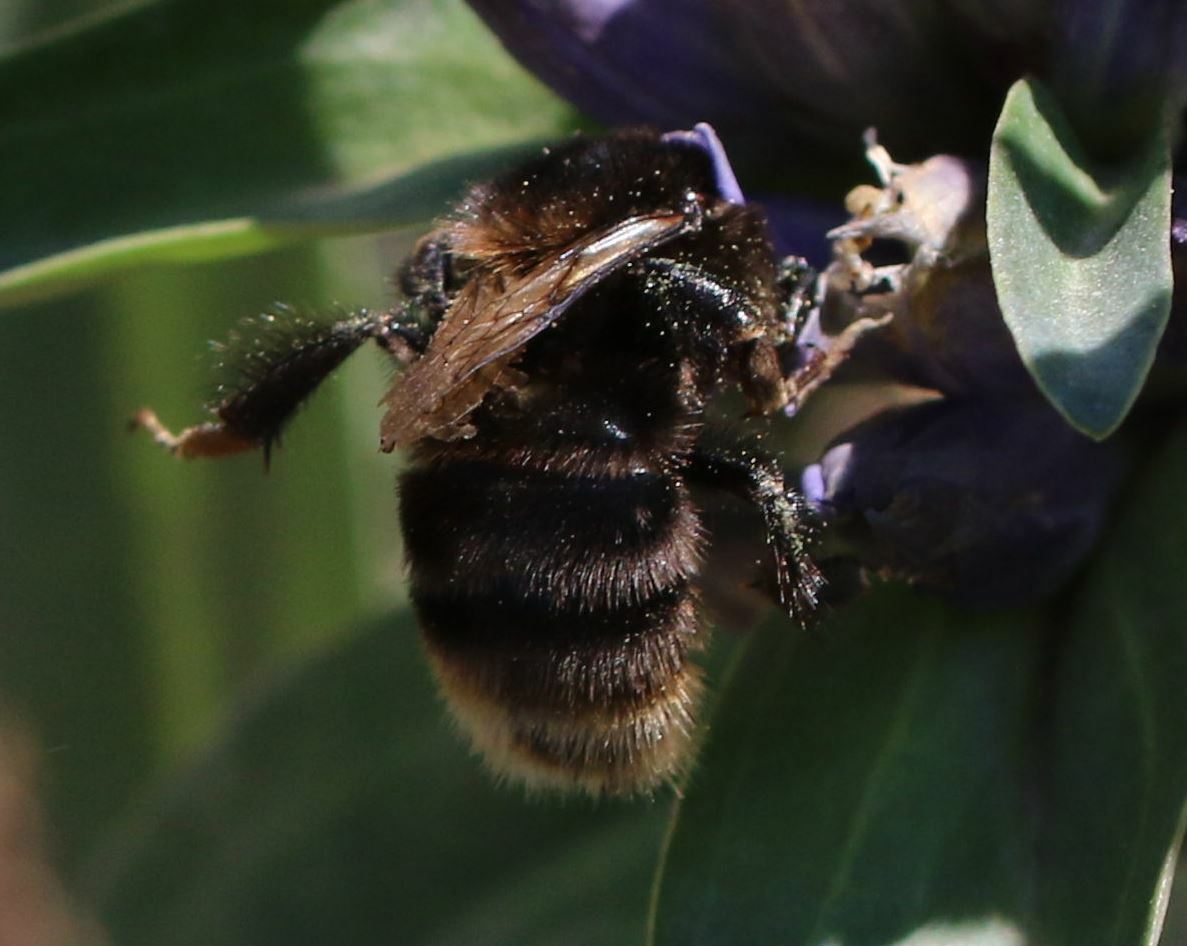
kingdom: Animalia
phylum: Arthropoda
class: Insecta
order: Hymenoptera
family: Apidae
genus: Bombus
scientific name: Bombus subterraneus
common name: Short-haired humble-bee
